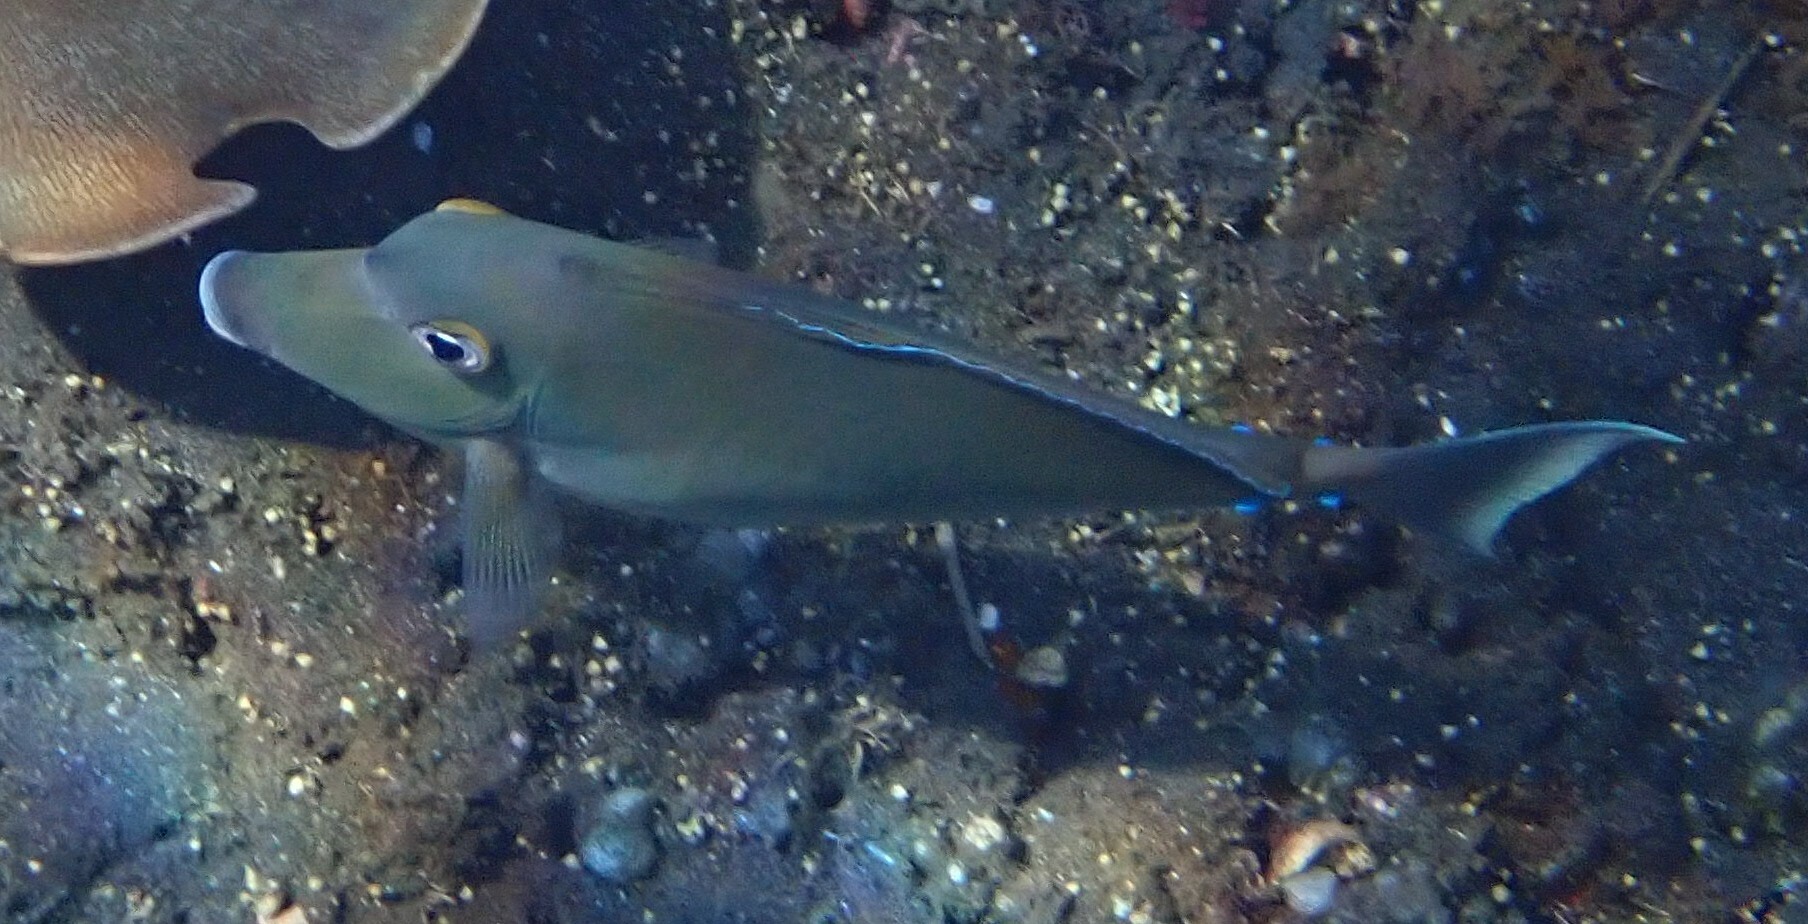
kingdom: Animalia
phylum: Chordata
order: Perciformes
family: Acanthuridae
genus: Naso
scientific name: Naso unicornis
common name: Bluespine unicornfish
